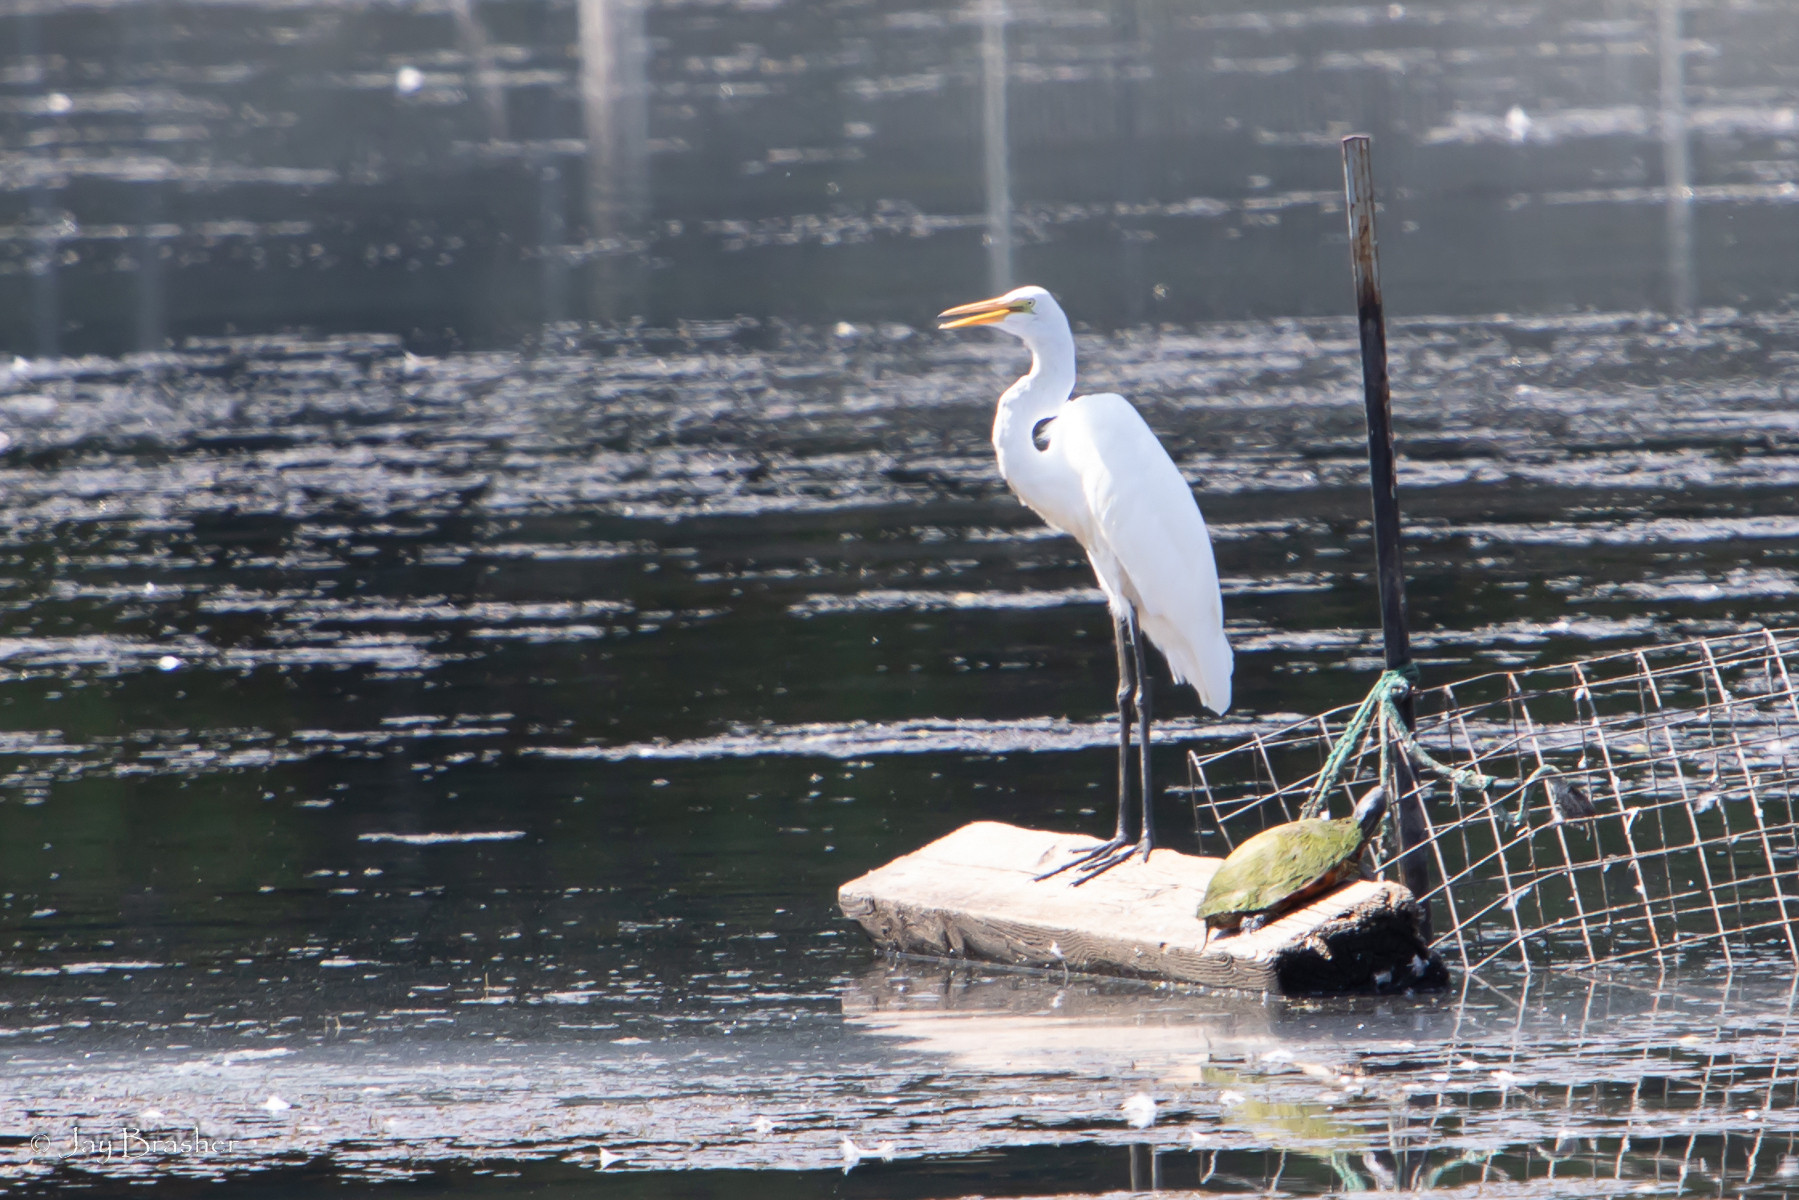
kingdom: Animalia
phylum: Chordata
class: Aves
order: Pelecaniformes
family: Ardeidae
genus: Ardea
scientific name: Ardea alba
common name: Great egret
